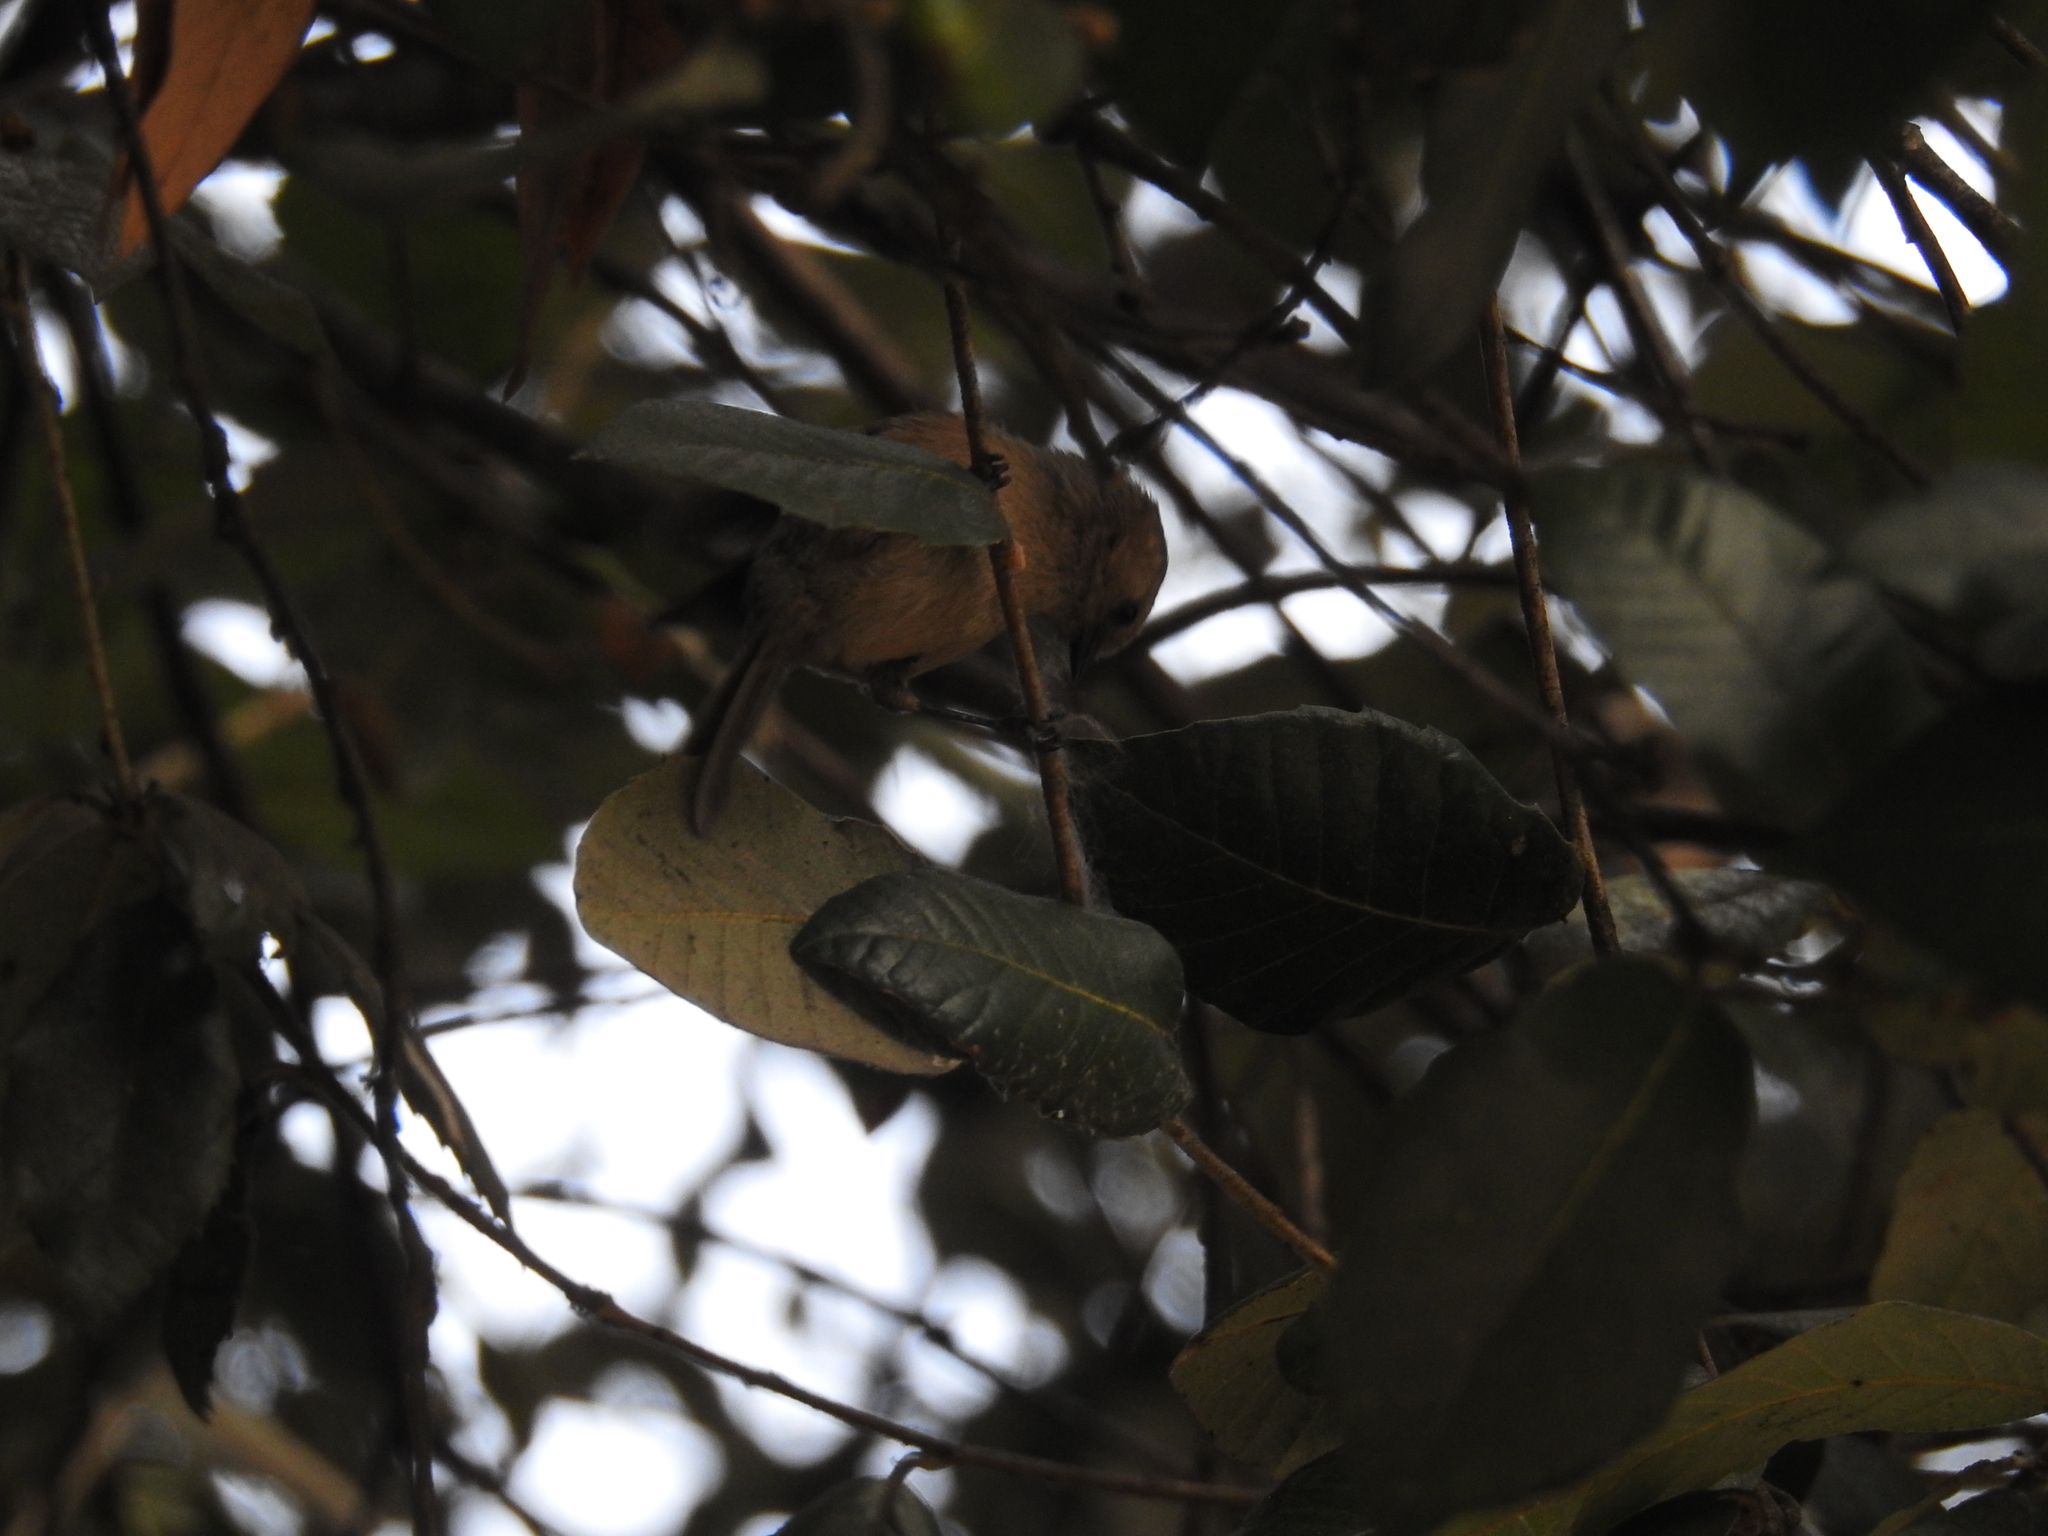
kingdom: Animalia
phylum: Chordata
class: Aves
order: Passeriformes
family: Aegithalidae
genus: Psaltriparus
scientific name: Psaltriparus minimus
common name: American bushtit
